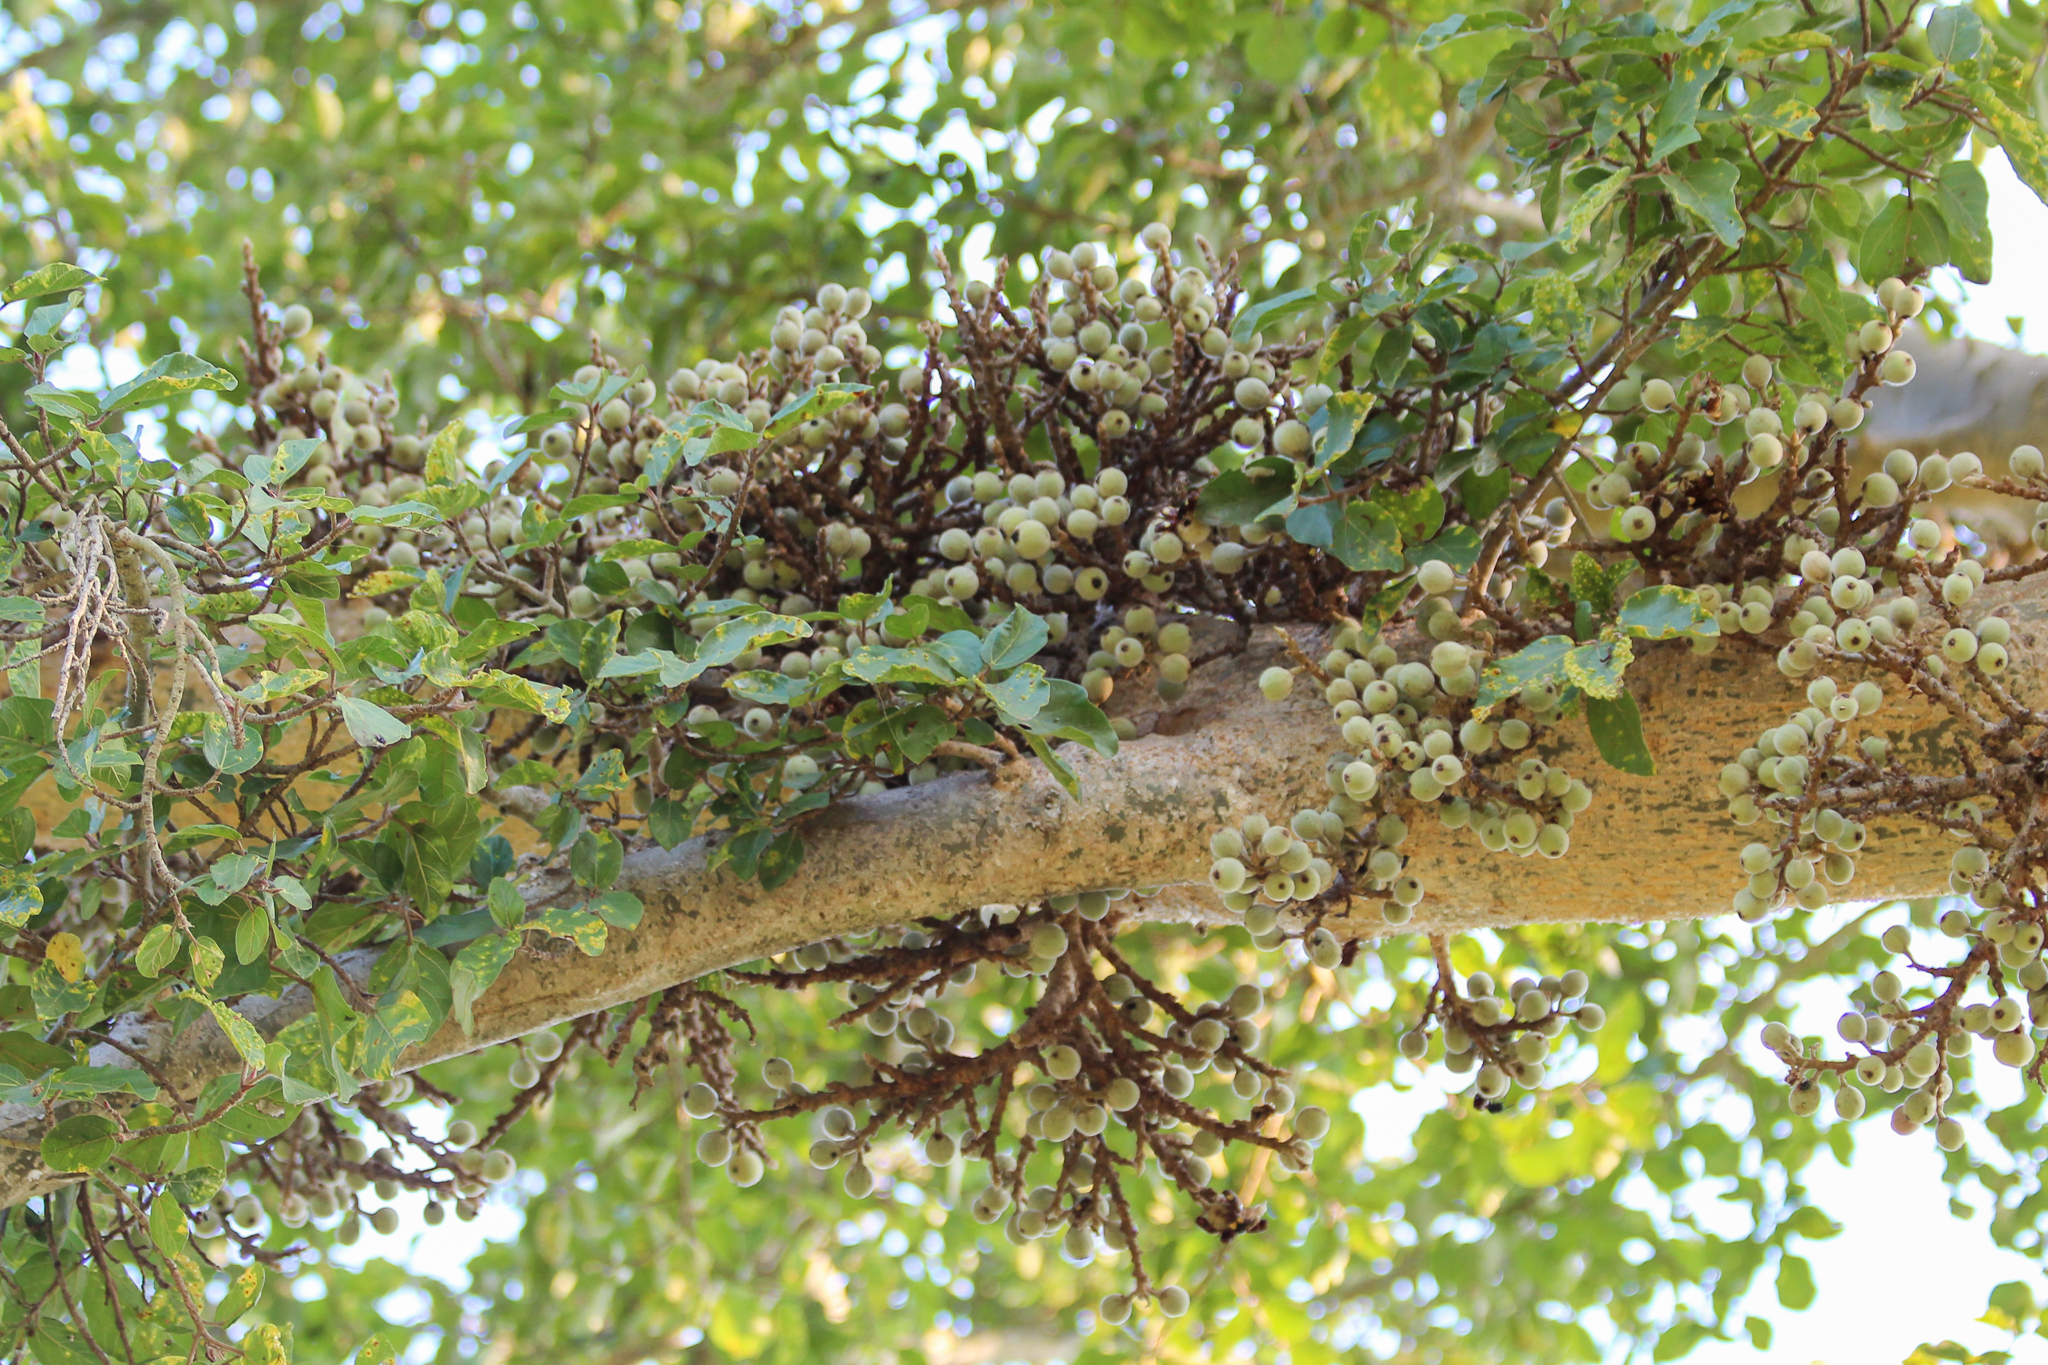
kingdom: Plantae
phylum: Tracheophyta
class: Magnoliopsida
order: Rosales
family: Moraceae
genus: Ficus
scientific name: Ficus sycomorus
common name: Sycomore
